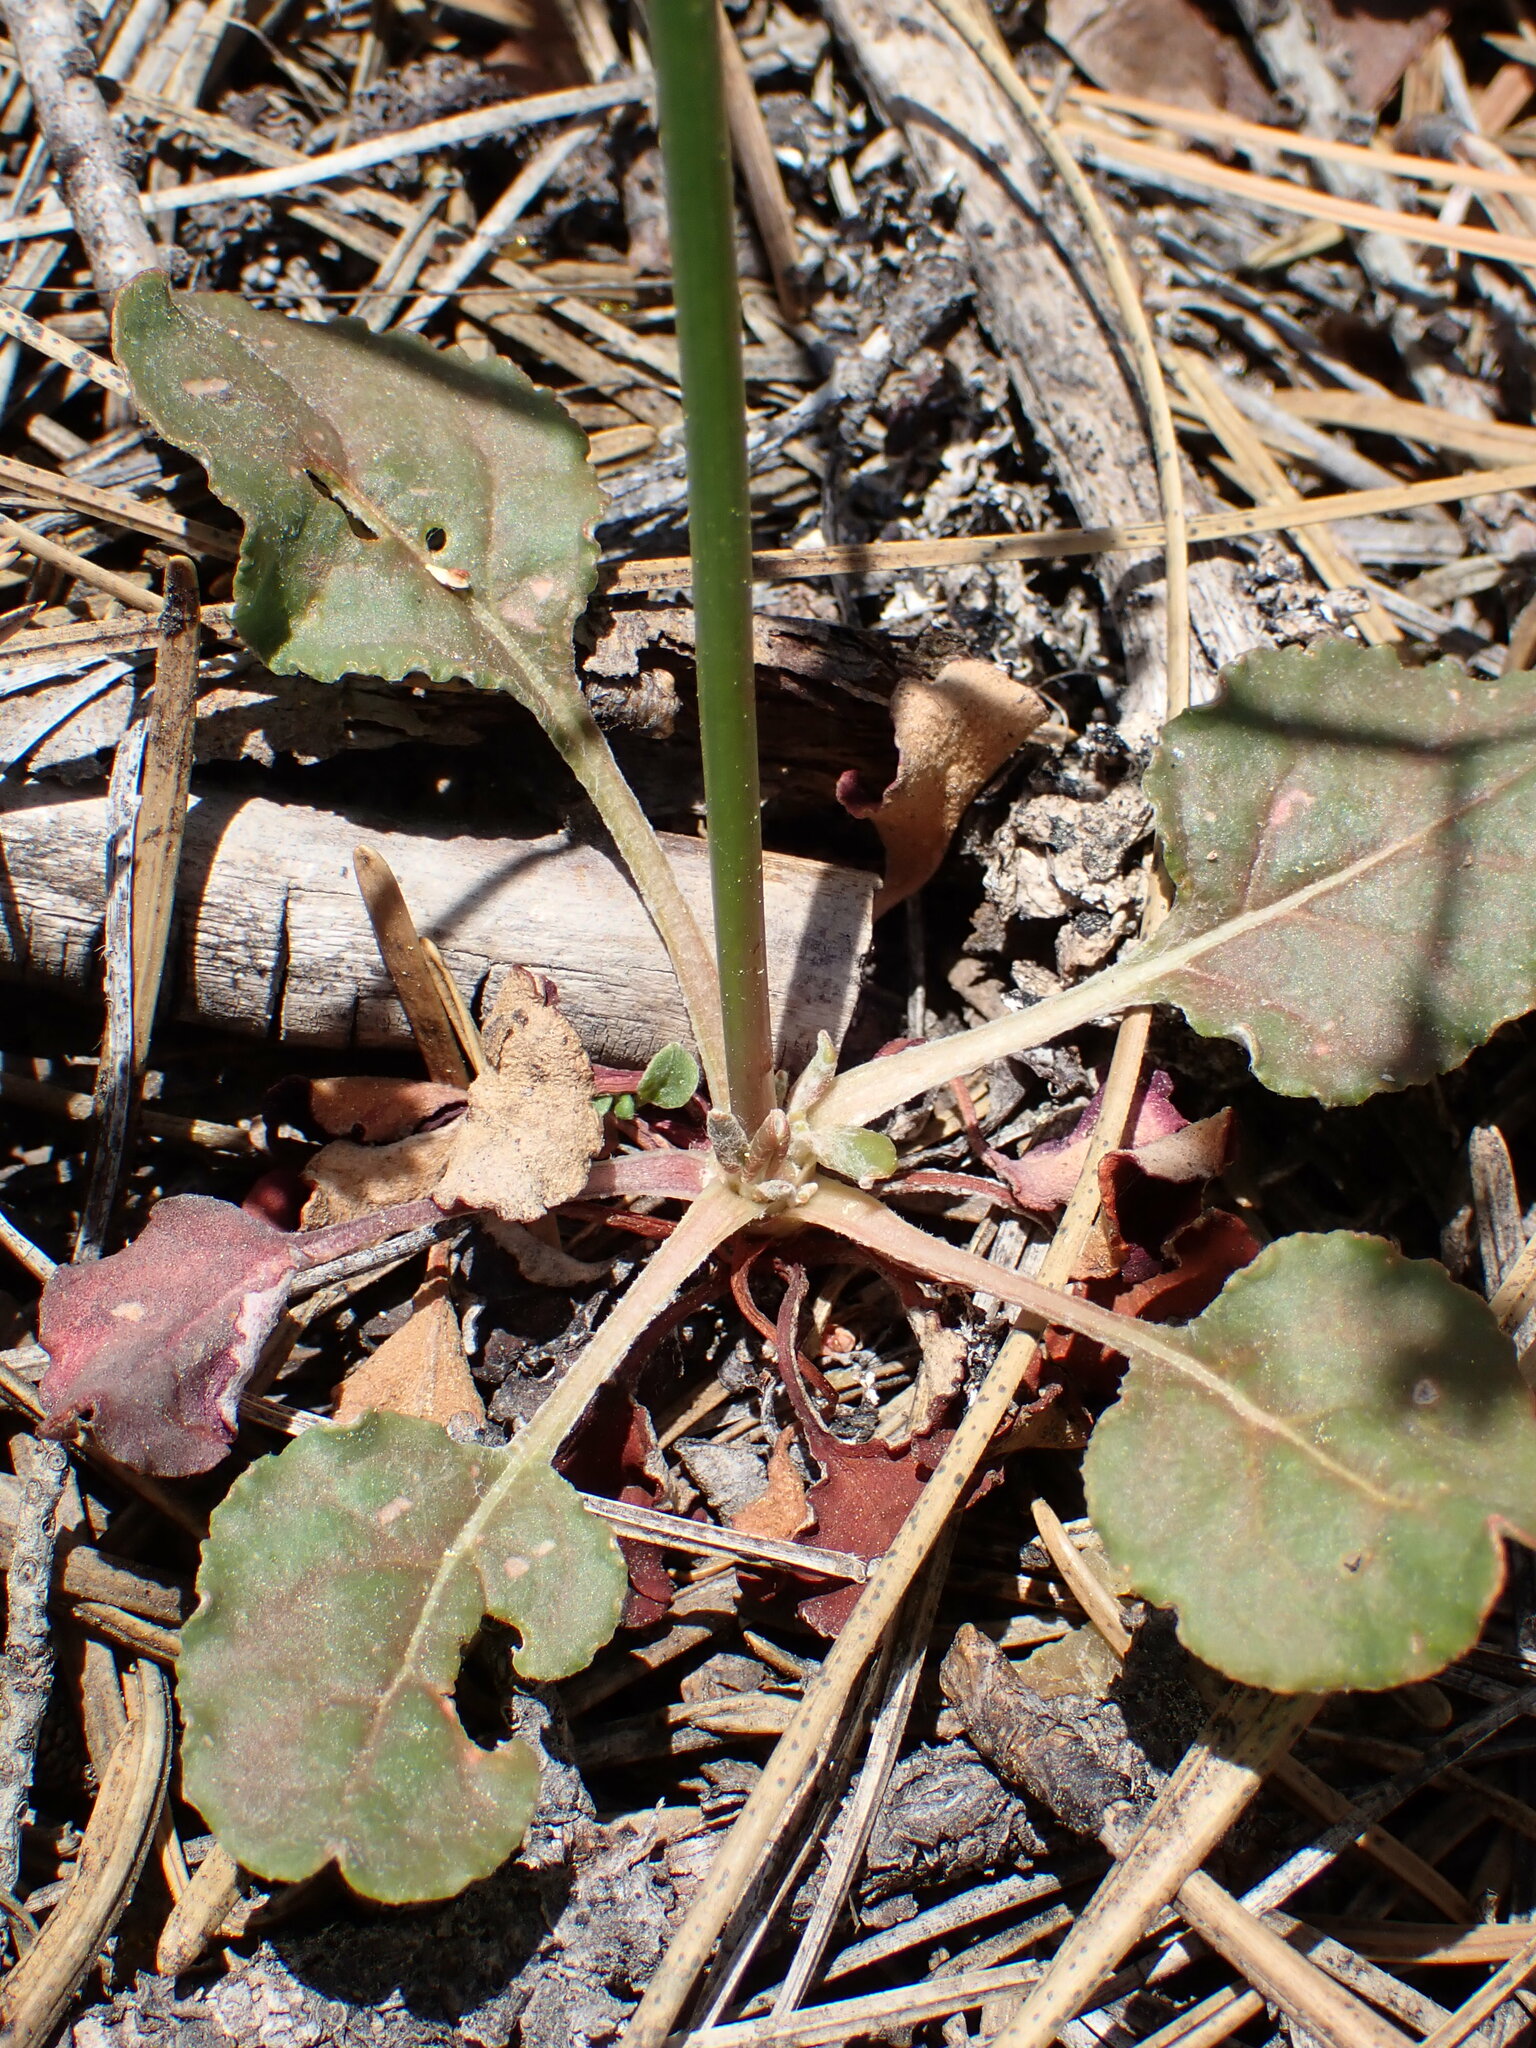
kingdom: Plantae
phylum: Tracheophyta
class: Magnoliopsida
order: Caryophyllales
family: Polygonaceae
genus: Eriogonum
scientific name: Eriogonum nudum
